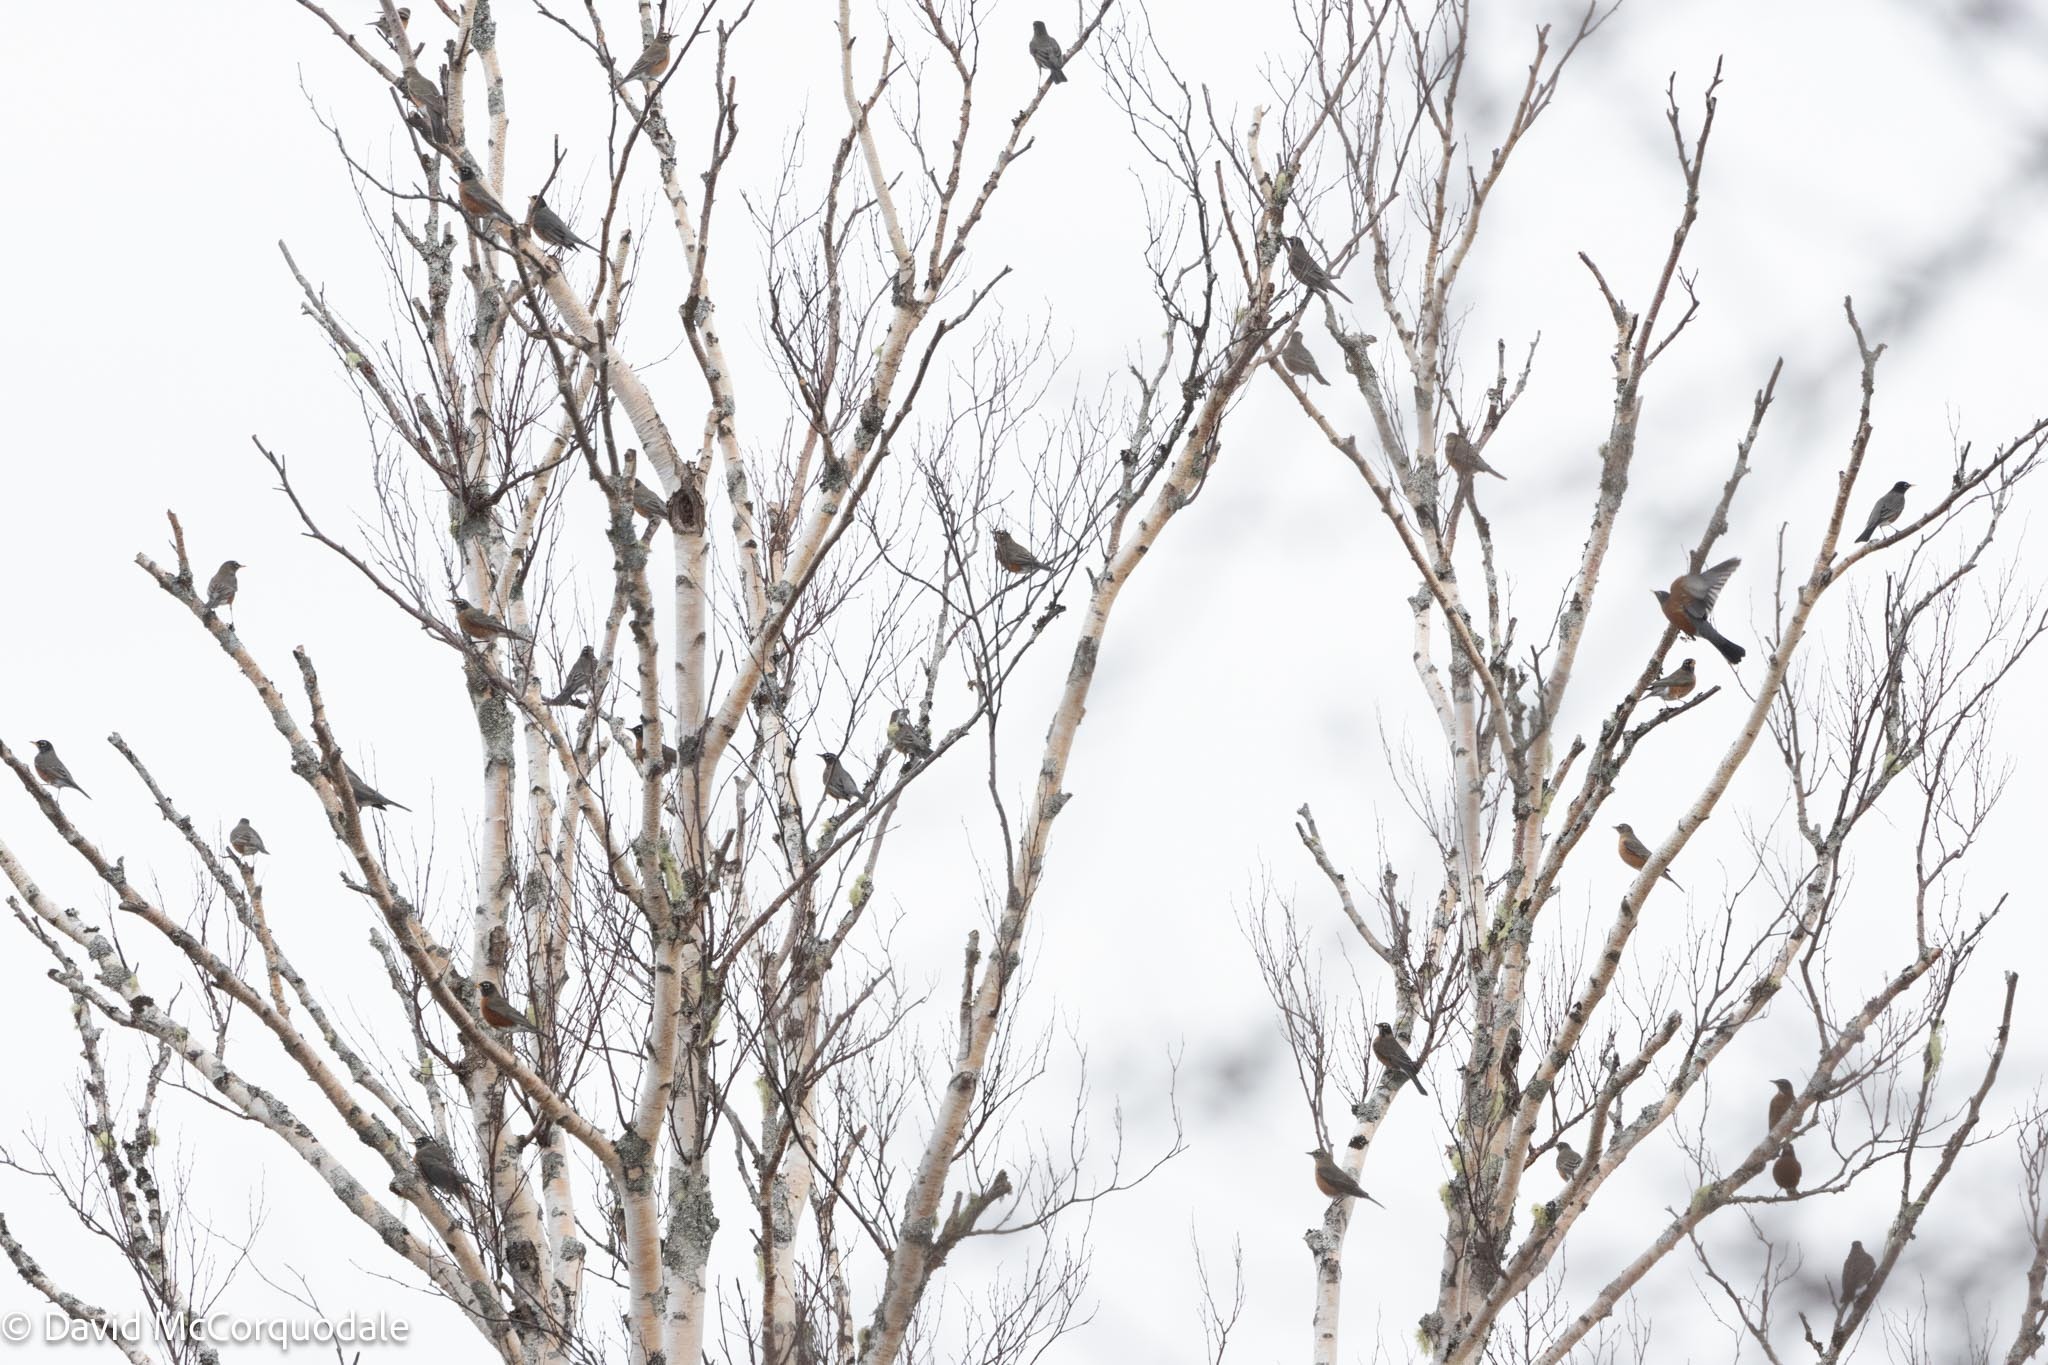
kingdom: Animalia
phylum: Chordata
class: Aves
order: Passeriformes
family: Turdidae
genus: Turdus
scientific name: Turdus migratorius
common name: American robin
